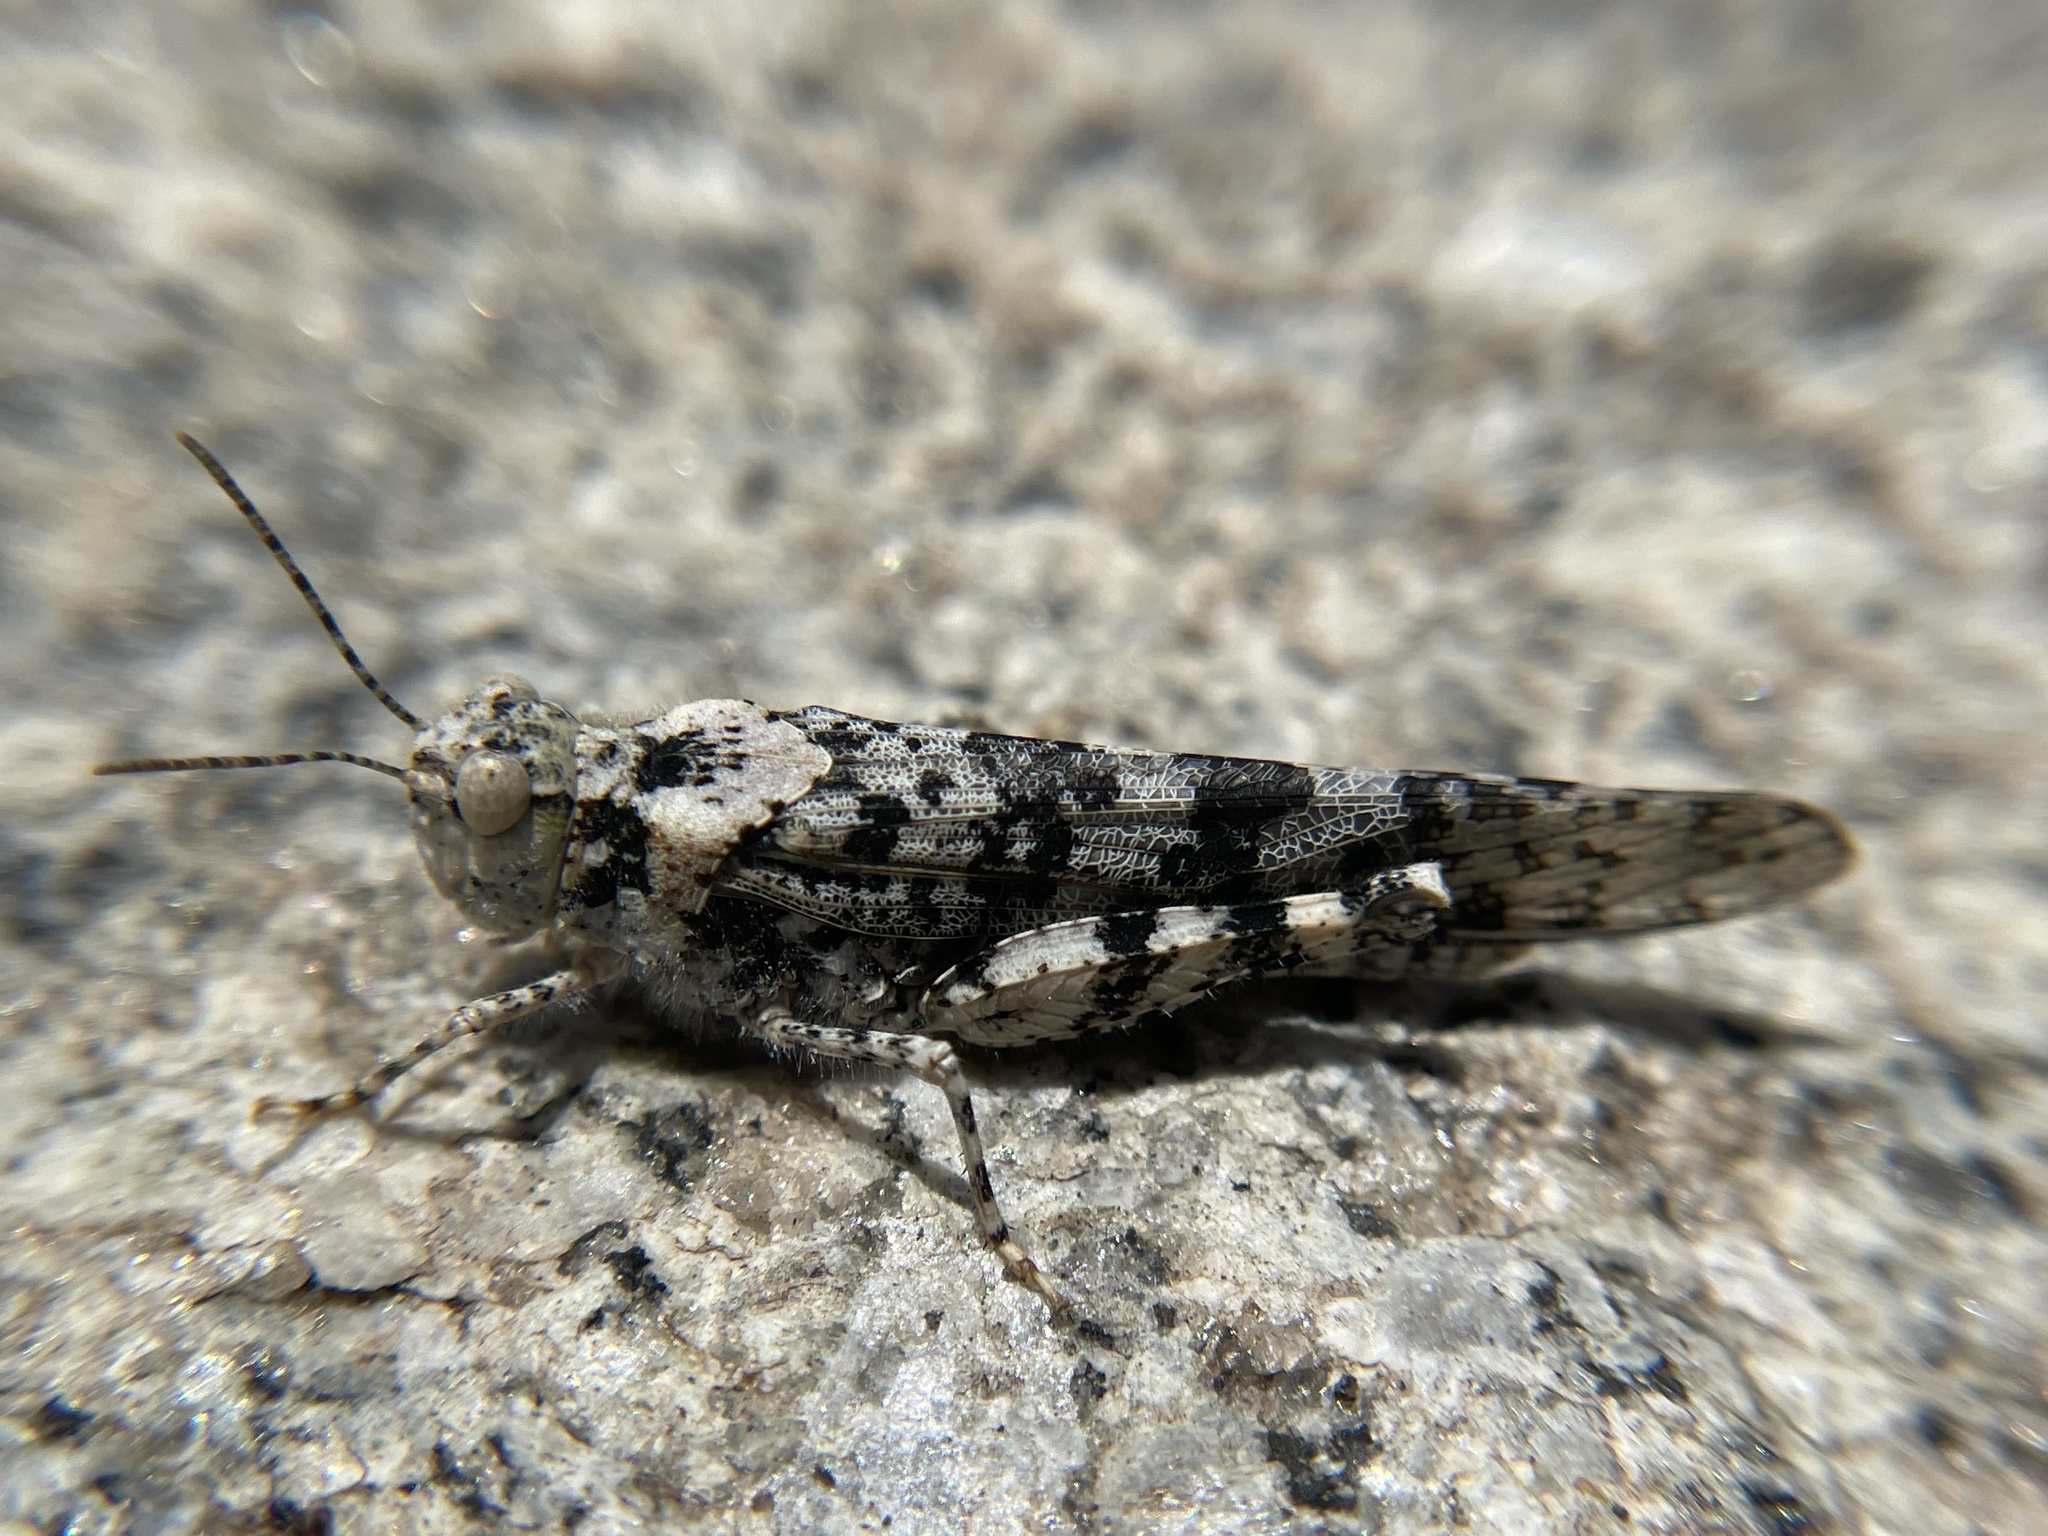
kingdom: Animalia
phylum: Arthropoda
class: Insecta
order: Orthoptera
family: Acrididae
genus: Circotettix
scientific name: Circotettix maculatus
